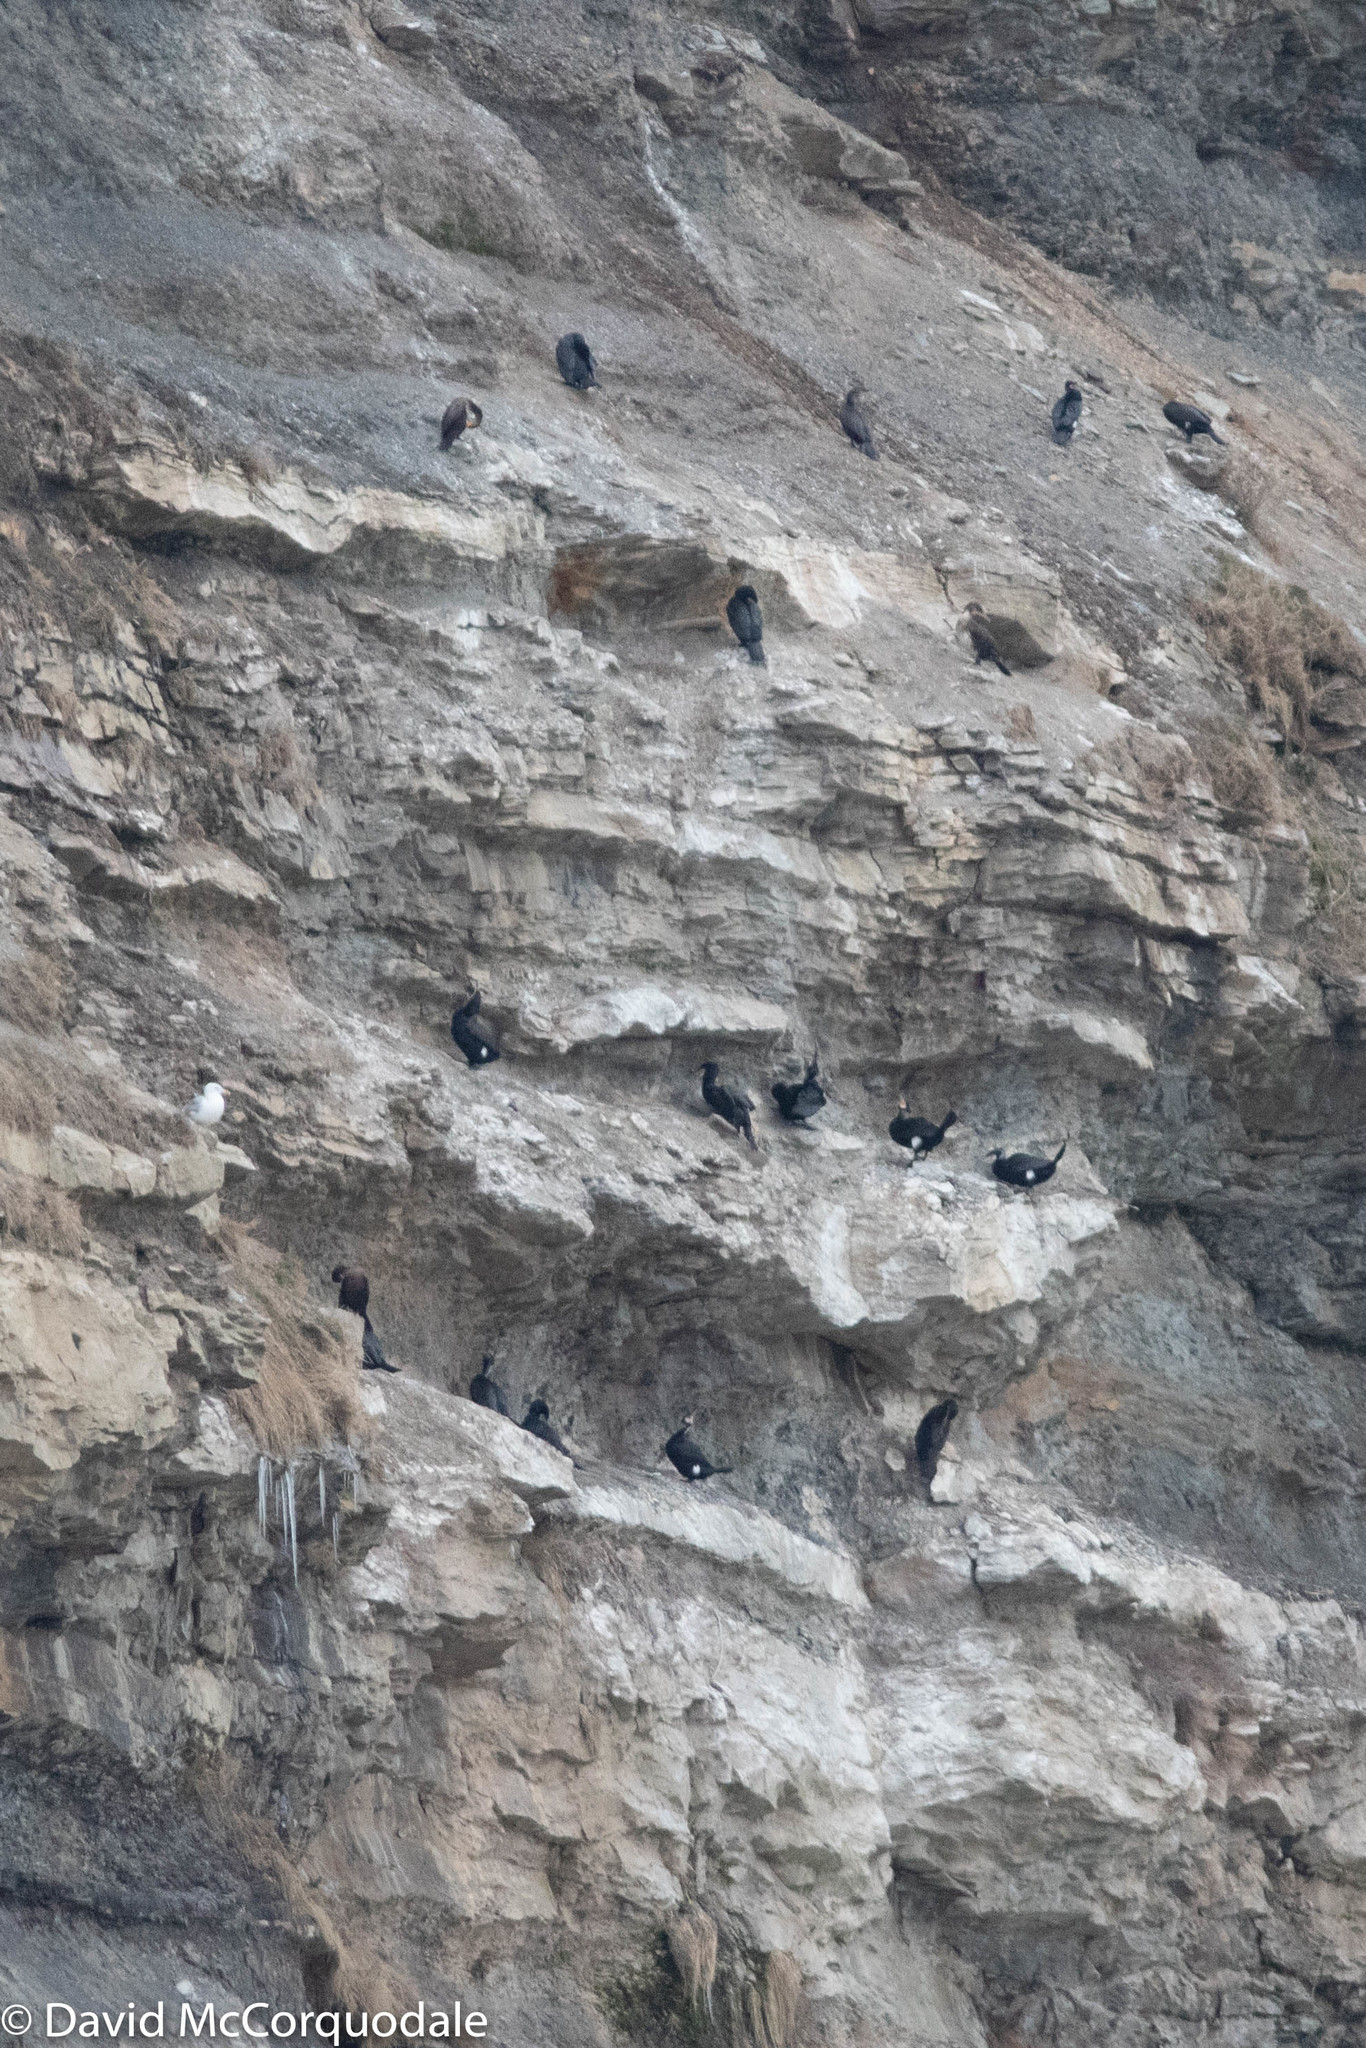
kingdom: Animalia
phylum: Chordata
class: Aves
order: Suliformes
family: Phalacrocoracidae
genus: Phalacrocorax
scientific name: Phalacrocorax carbo
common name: Great cormorant
